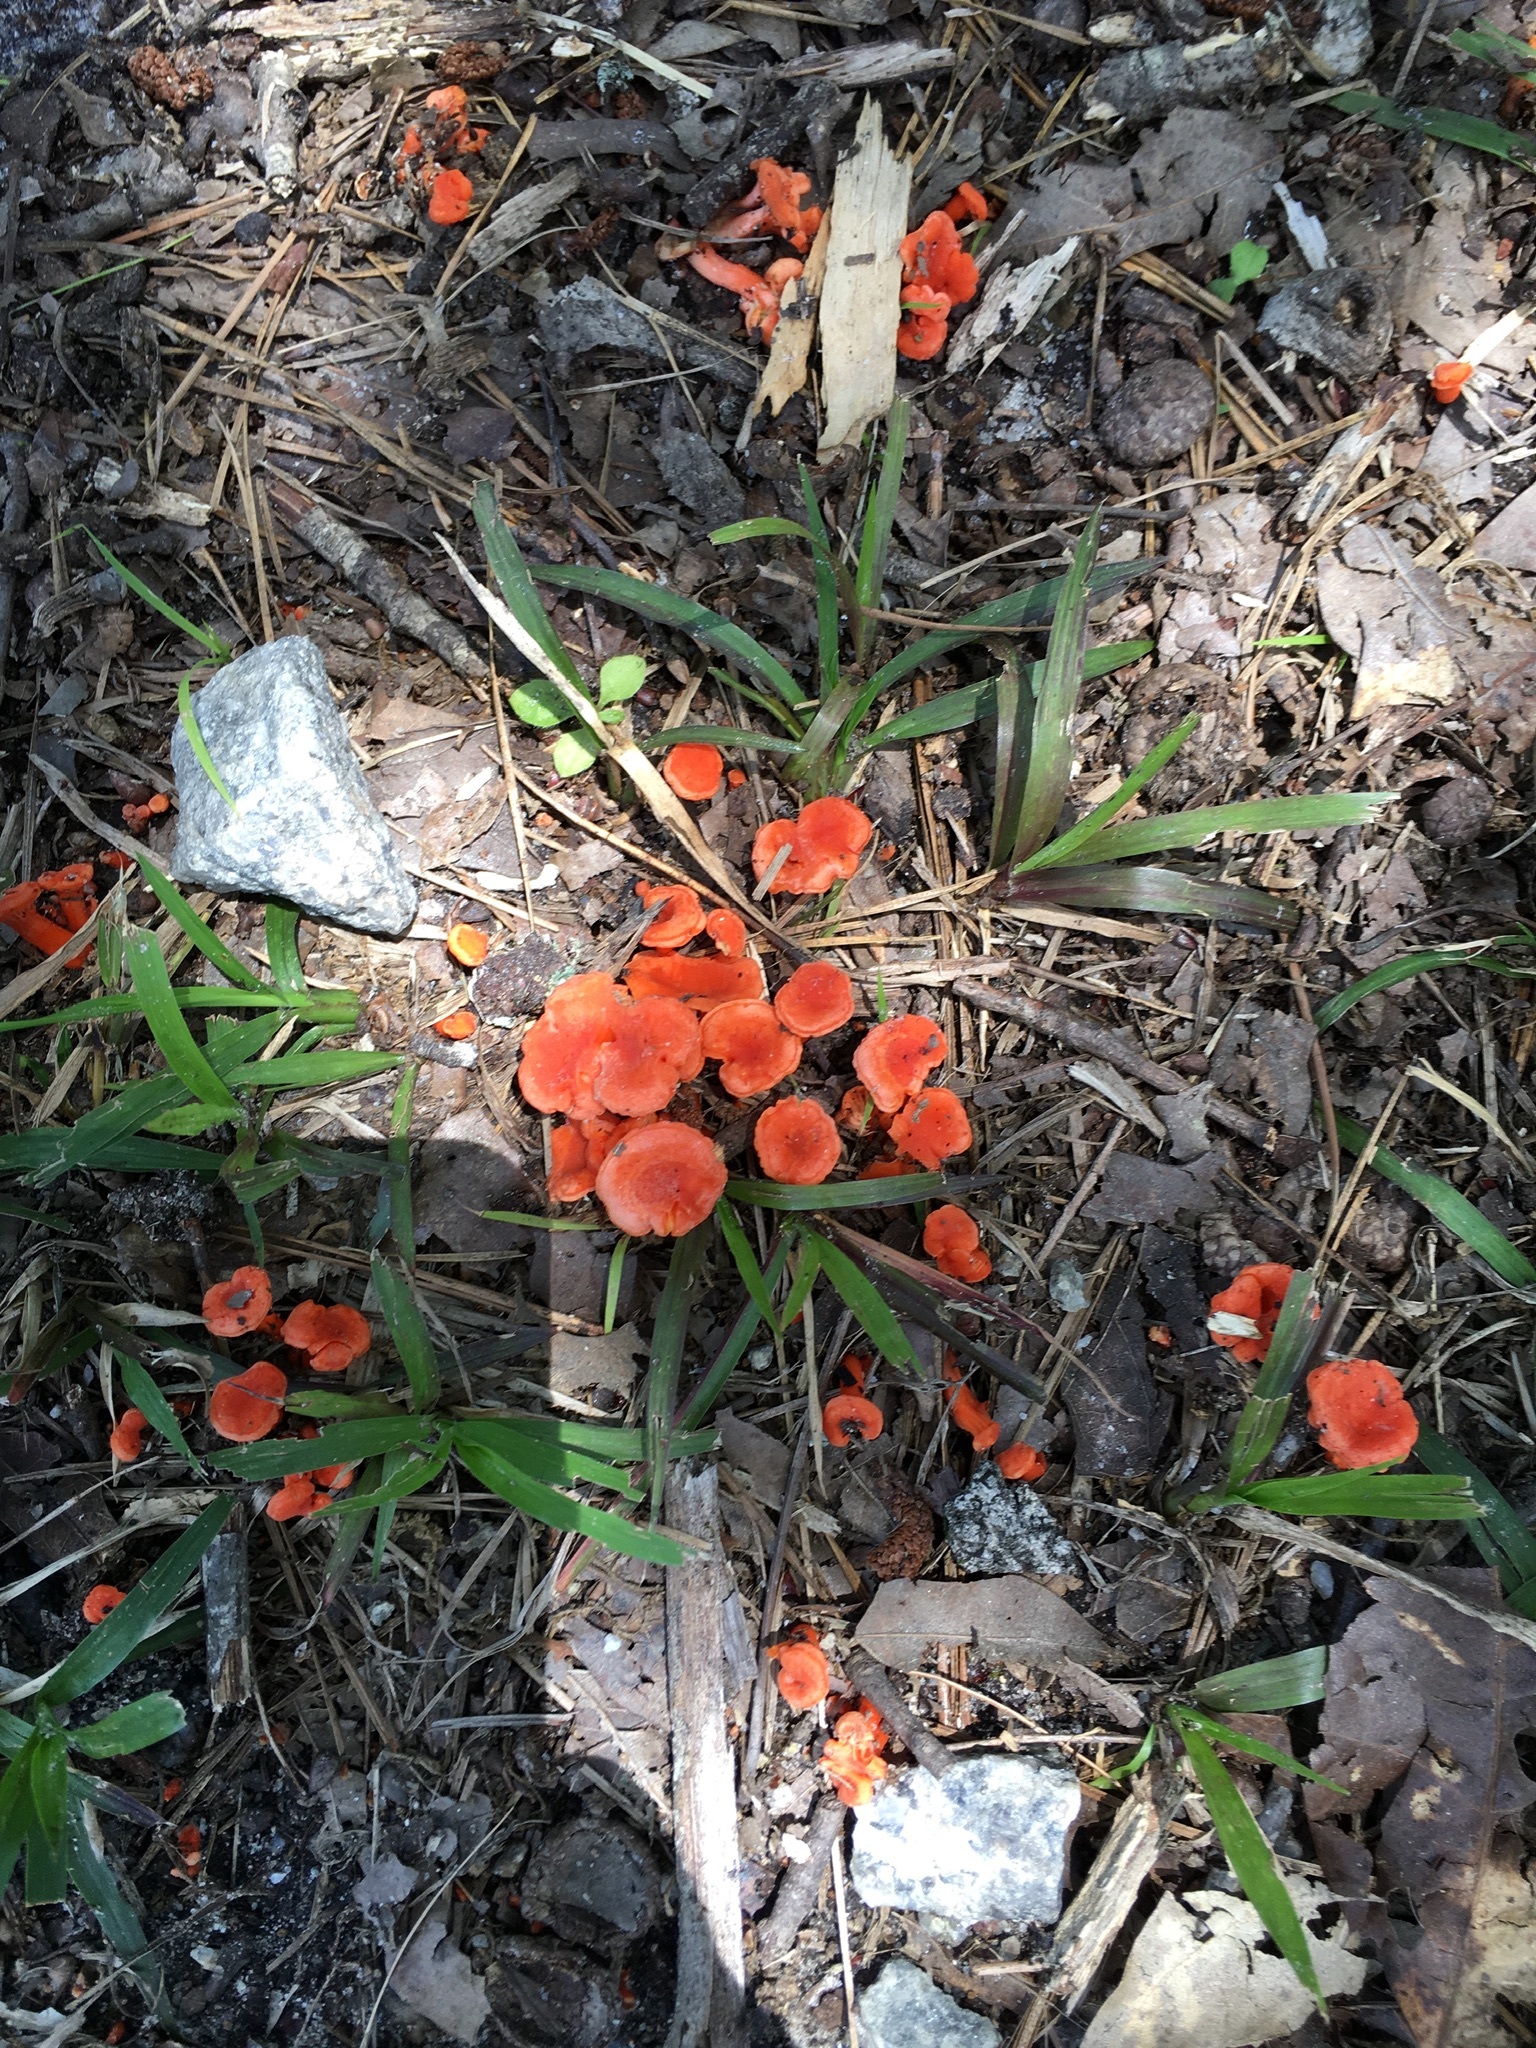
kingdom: Fungi
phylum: Basidiomycota
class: Agaricomycetes
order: Cantharellales
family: Hydnaceae
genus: Cantharellus
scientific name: Cantharellus cinnabarinus
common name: Cinnabar chanterelle
